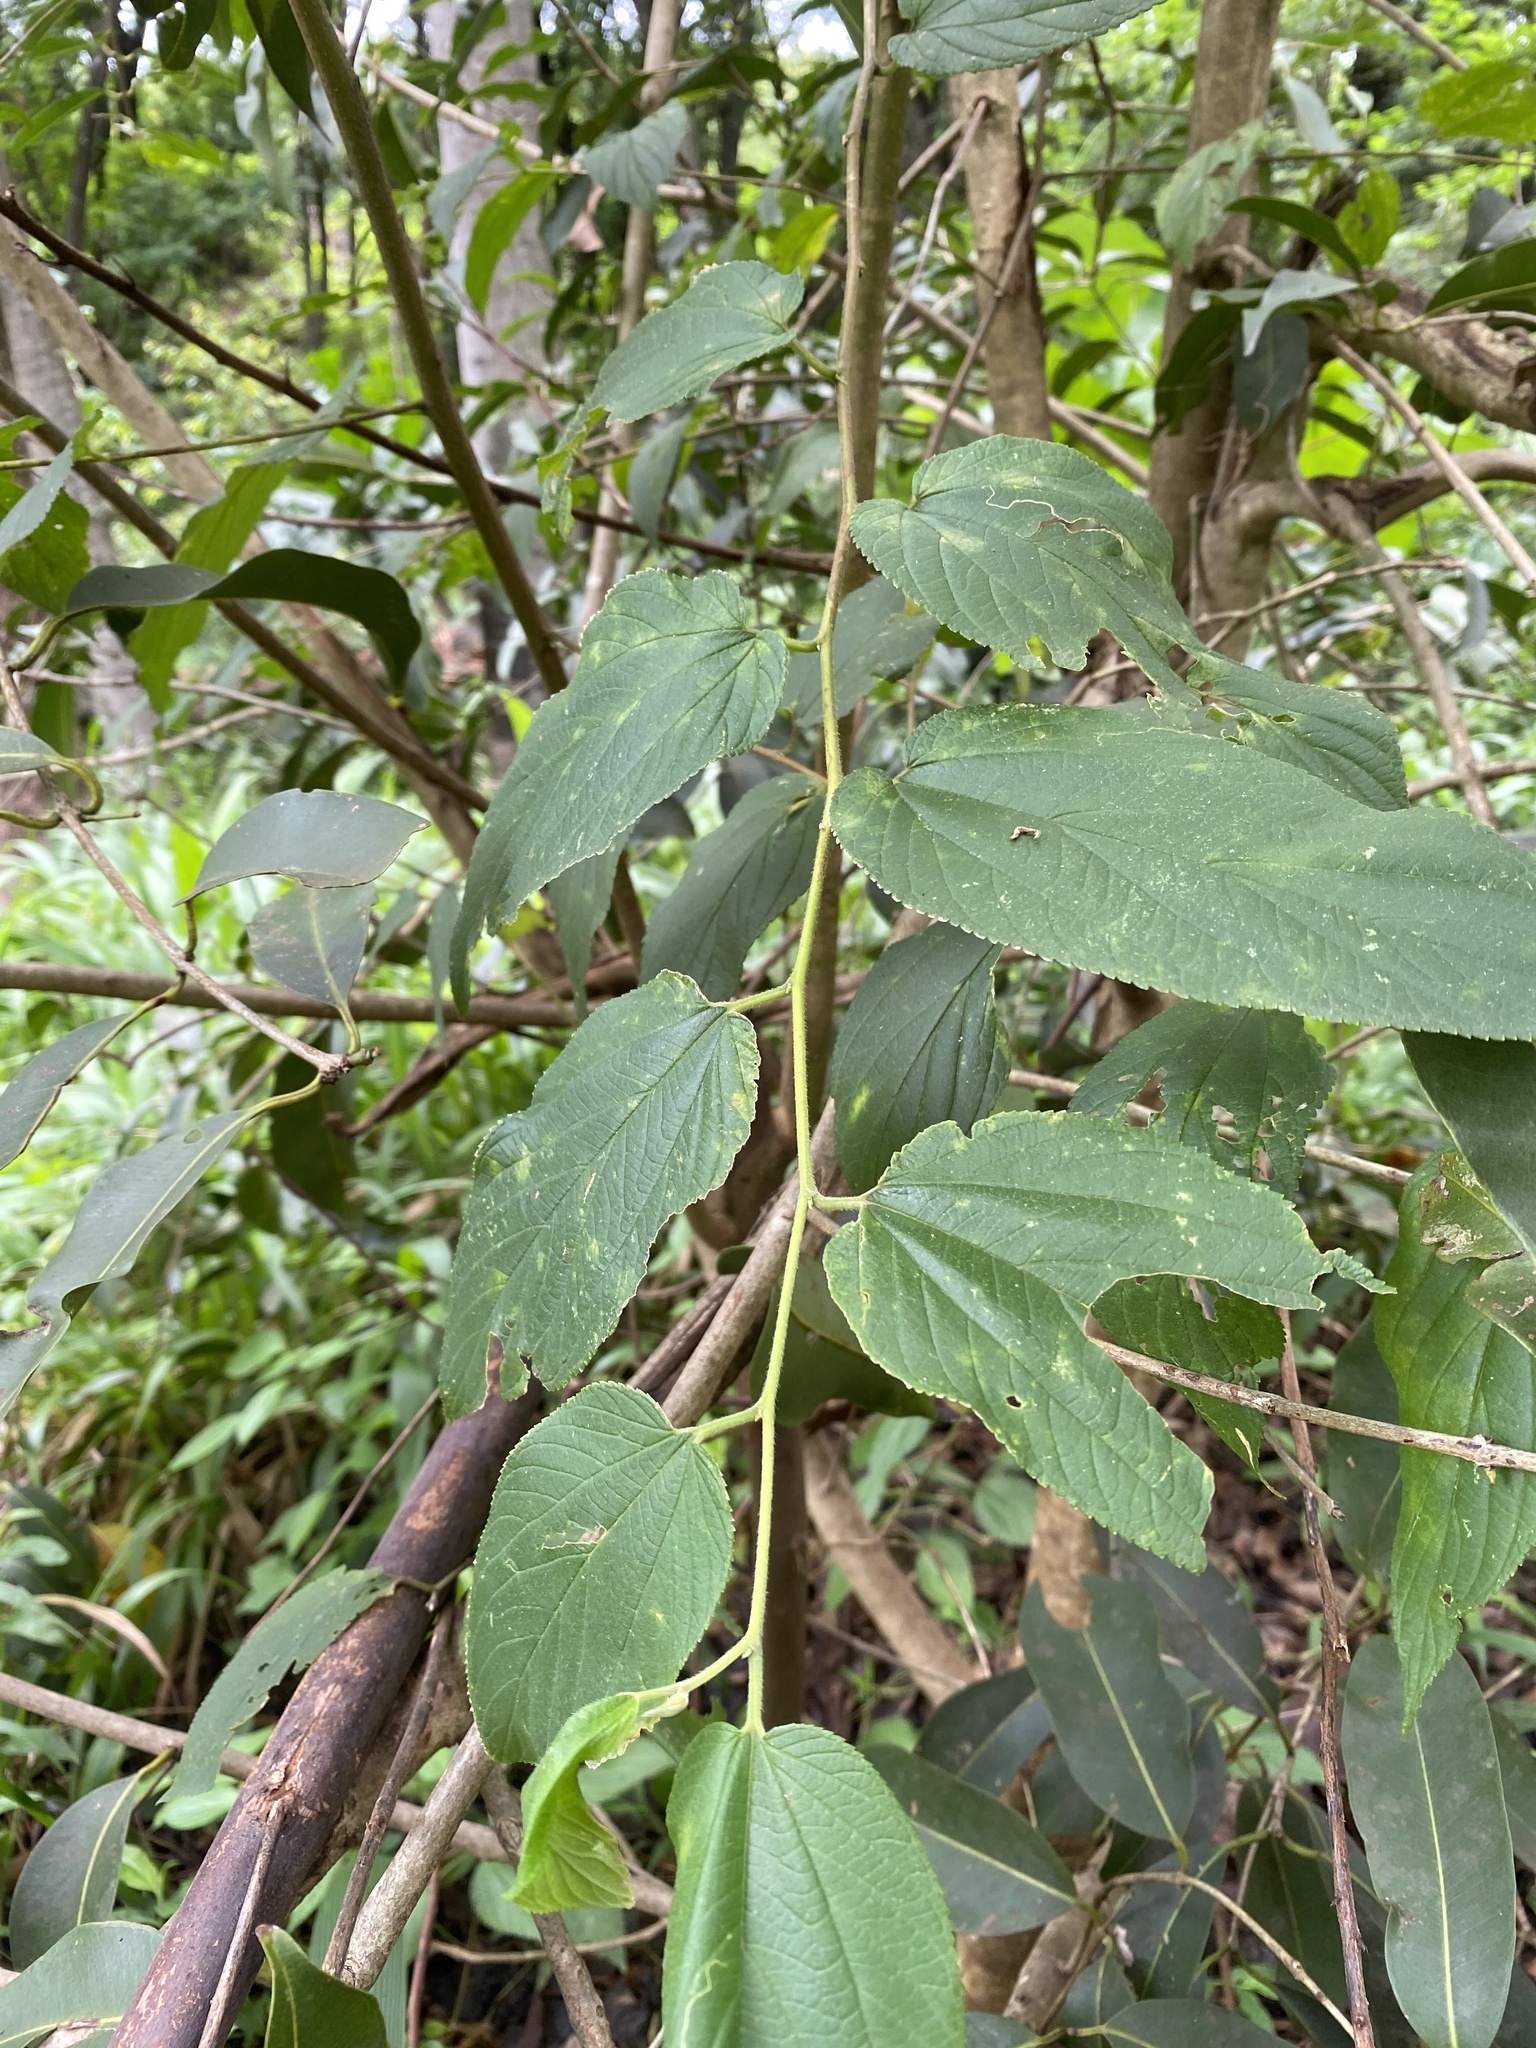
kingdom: Plantae
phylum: Tracheophyta
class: Magnoliopsida
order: Rosales
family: Cannabaceae
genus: Trema
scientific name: Trema orientale
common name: Indian charcoal tree
